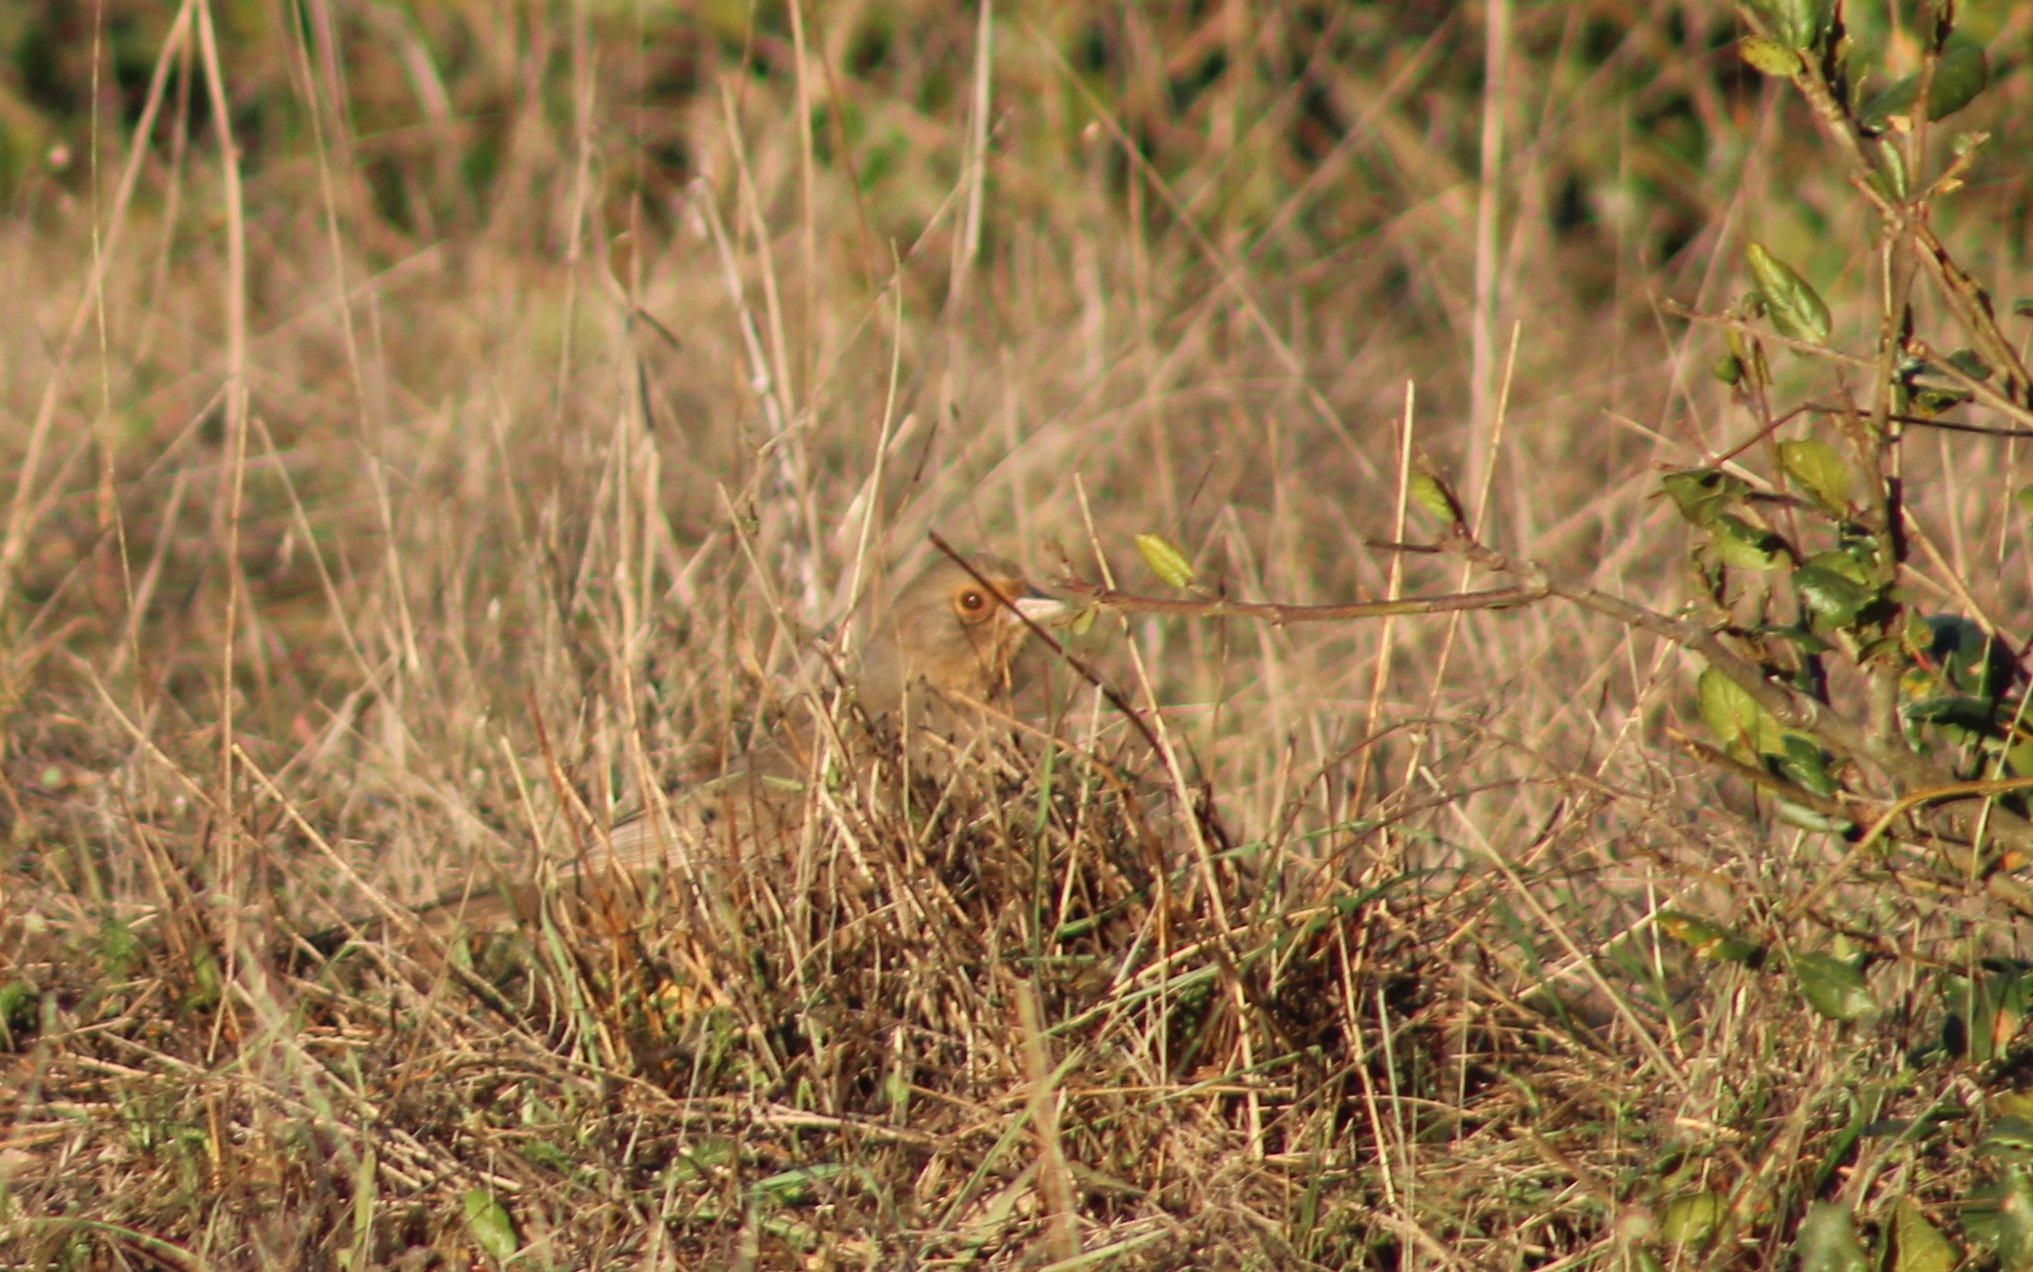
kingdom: Animalia
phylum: Chordata
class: Aves
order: Passeriformes
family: Passerellidae
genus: Melozone
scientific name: Melozone crissalis
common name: California towhee
